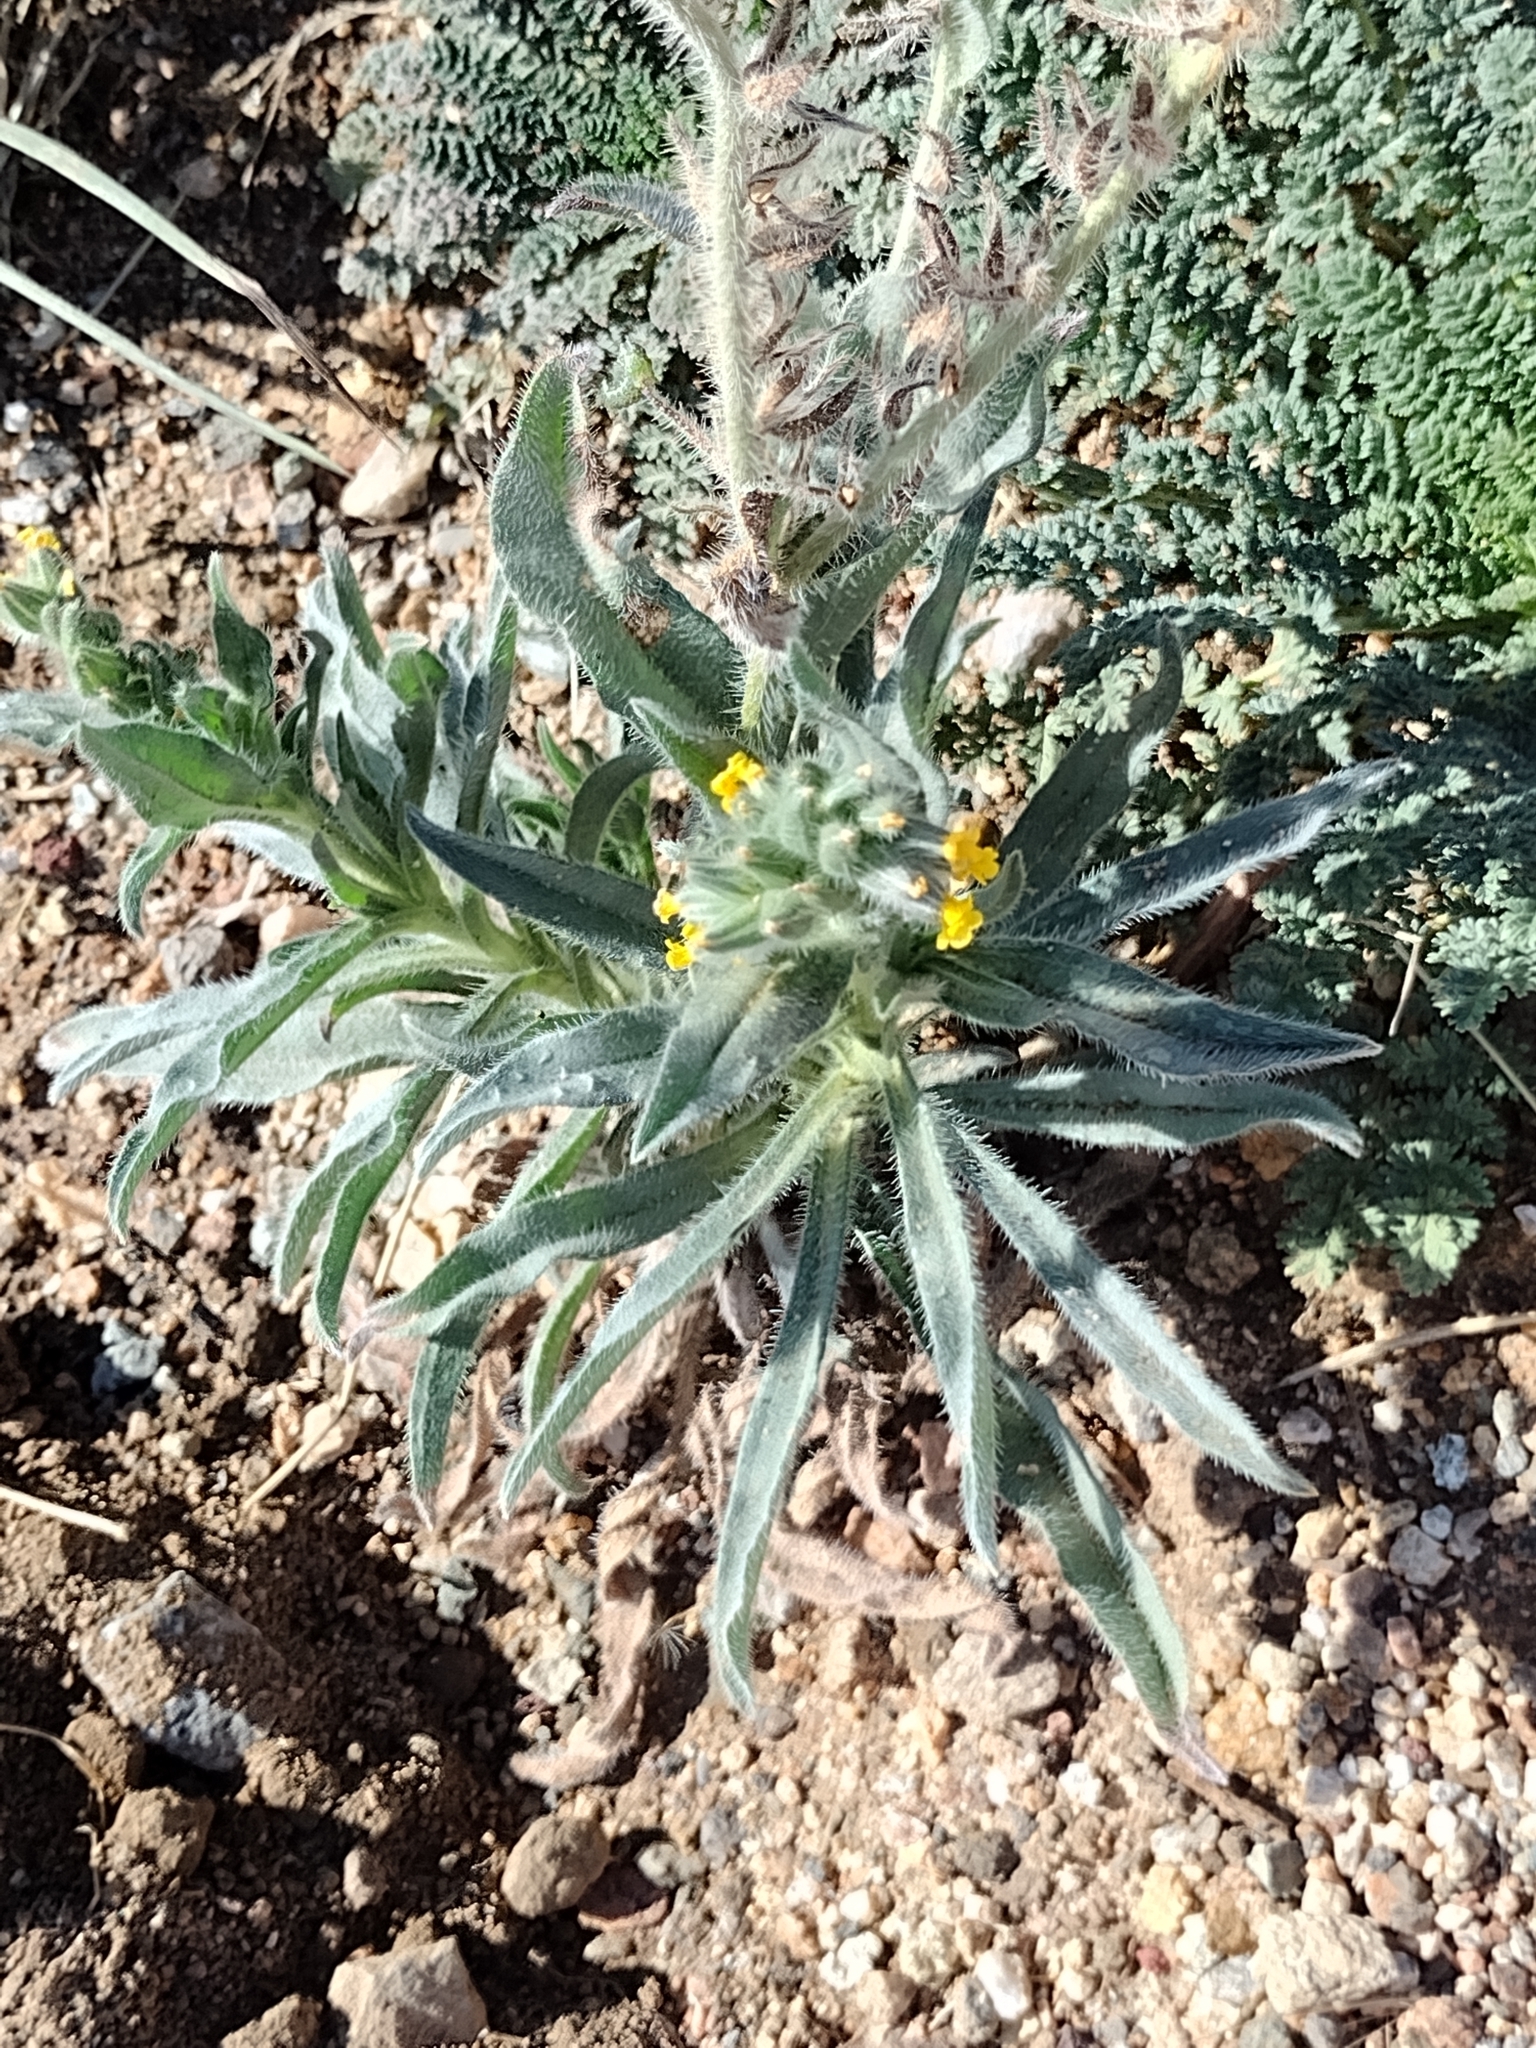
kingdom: Plantae
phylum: Tracheophyta
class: Magnoliopsida
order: Boraginales
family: Boraginaceae
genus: Amsinckia
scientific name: Amsinckia tessellata
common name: Tessellate fiddleneck
